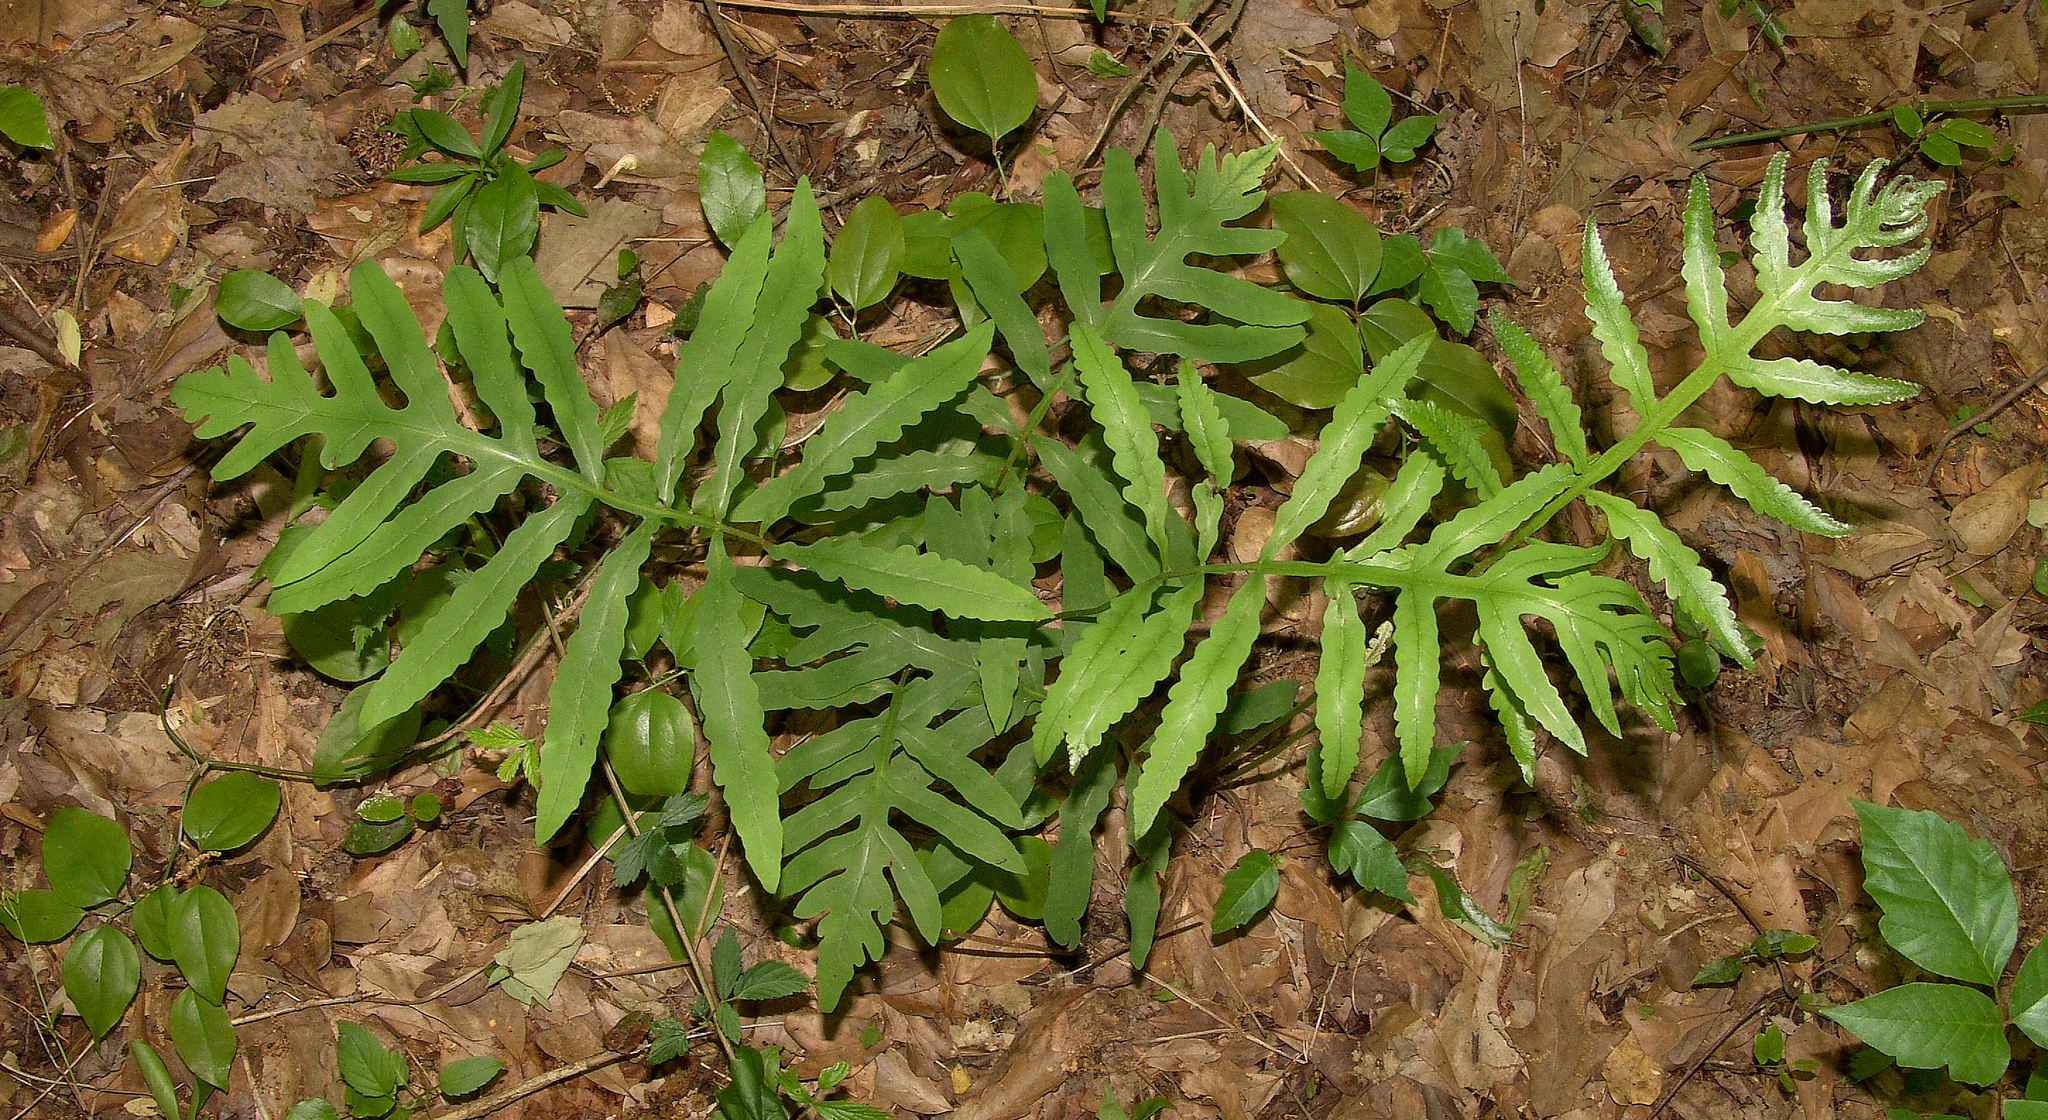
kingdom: Plantae
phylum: Tracheophyta
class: Polypodiopsida
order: Polypodiales
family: Onocleaceae
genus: Onoclea
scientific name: Onoclea sensibilis
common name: Sensitive fern
